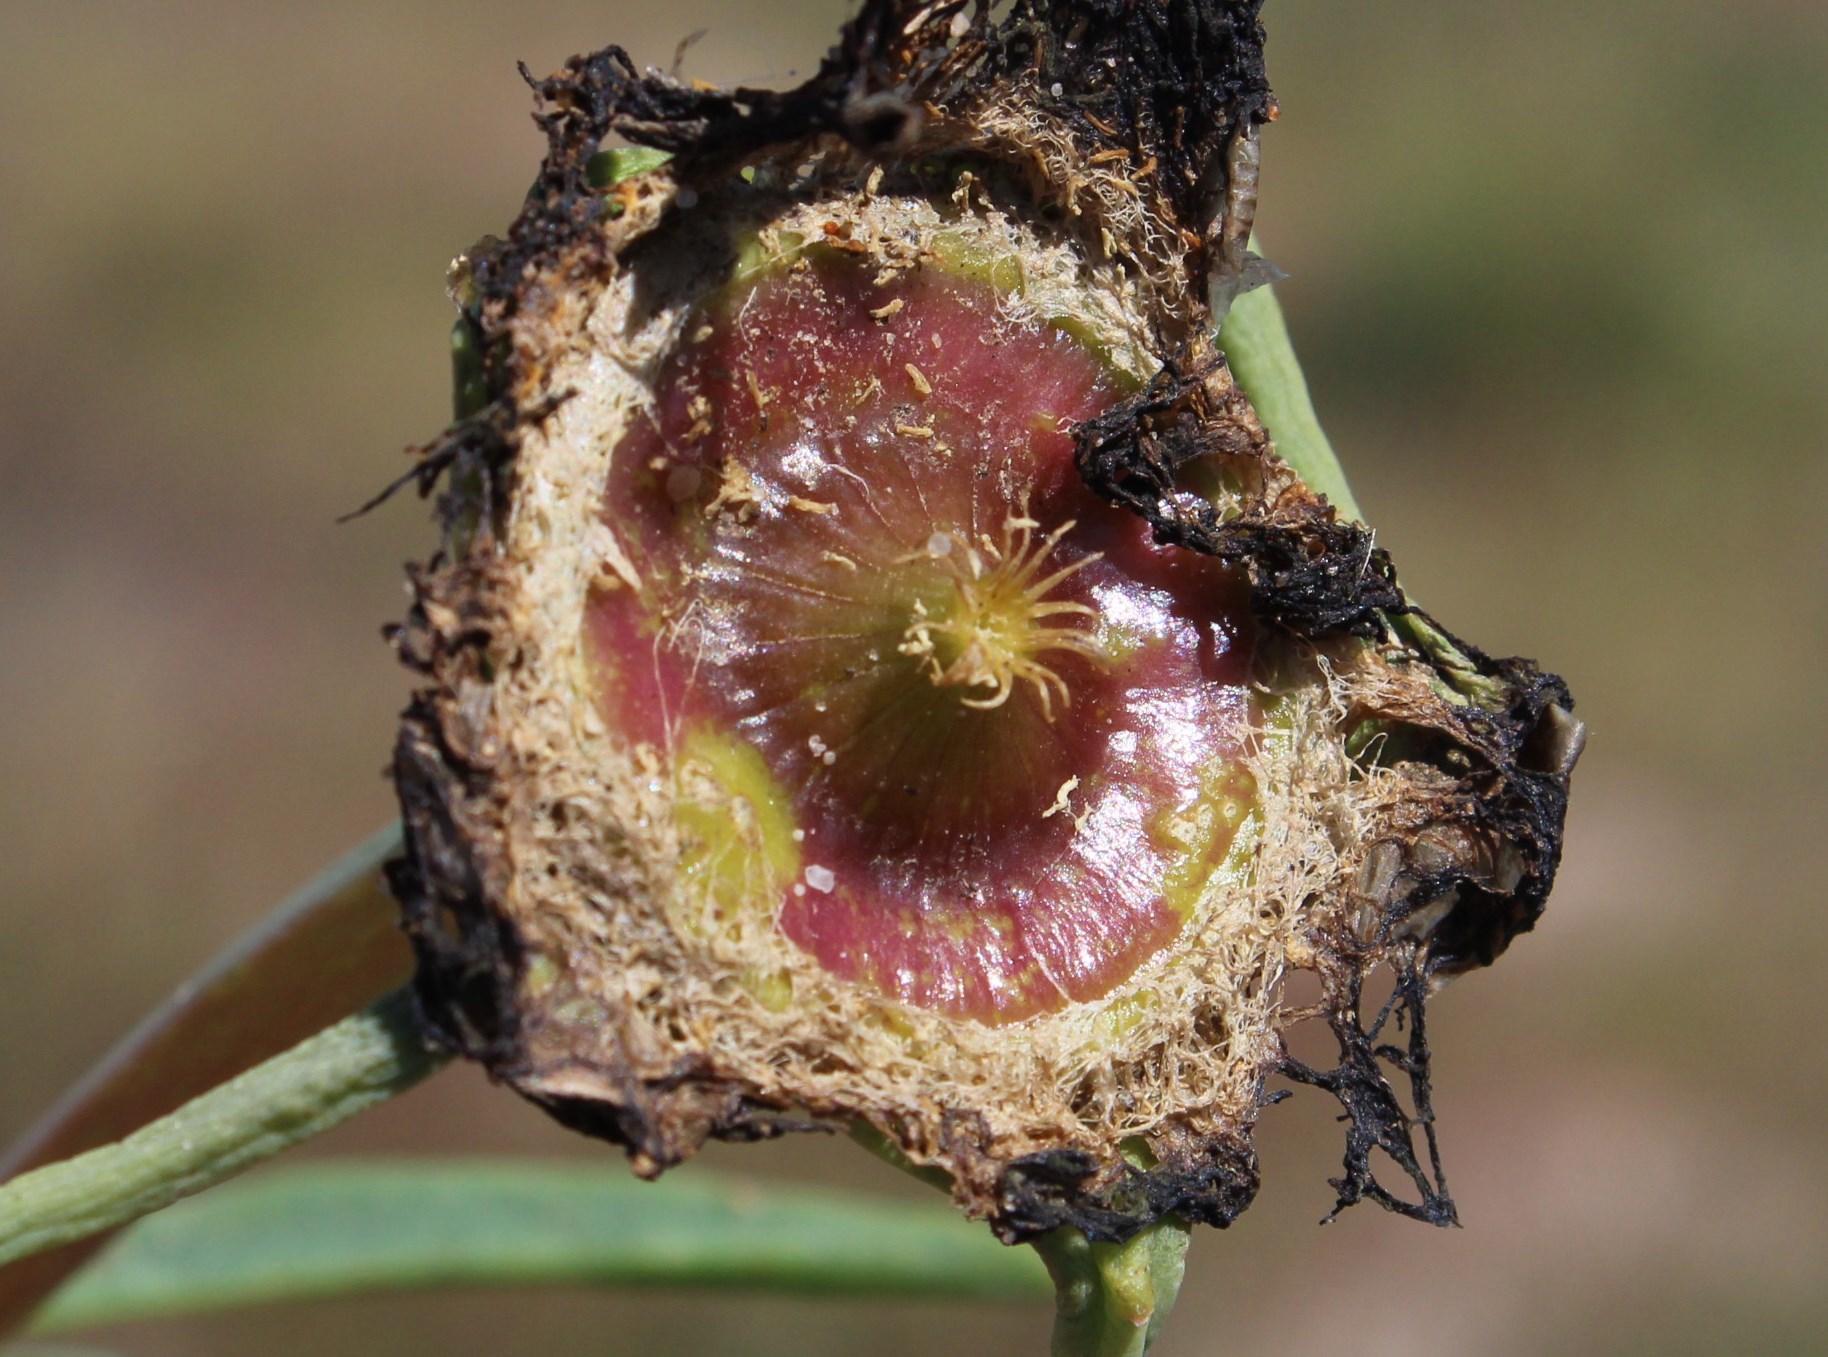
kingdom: Plantae
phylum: Tracheophyta
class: Magnoliopsida
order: Caryophyllales
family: Aizoaceae
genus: Conicosia
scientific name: Conicosia pugioniformis
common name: Narrow-leaved iceplant
